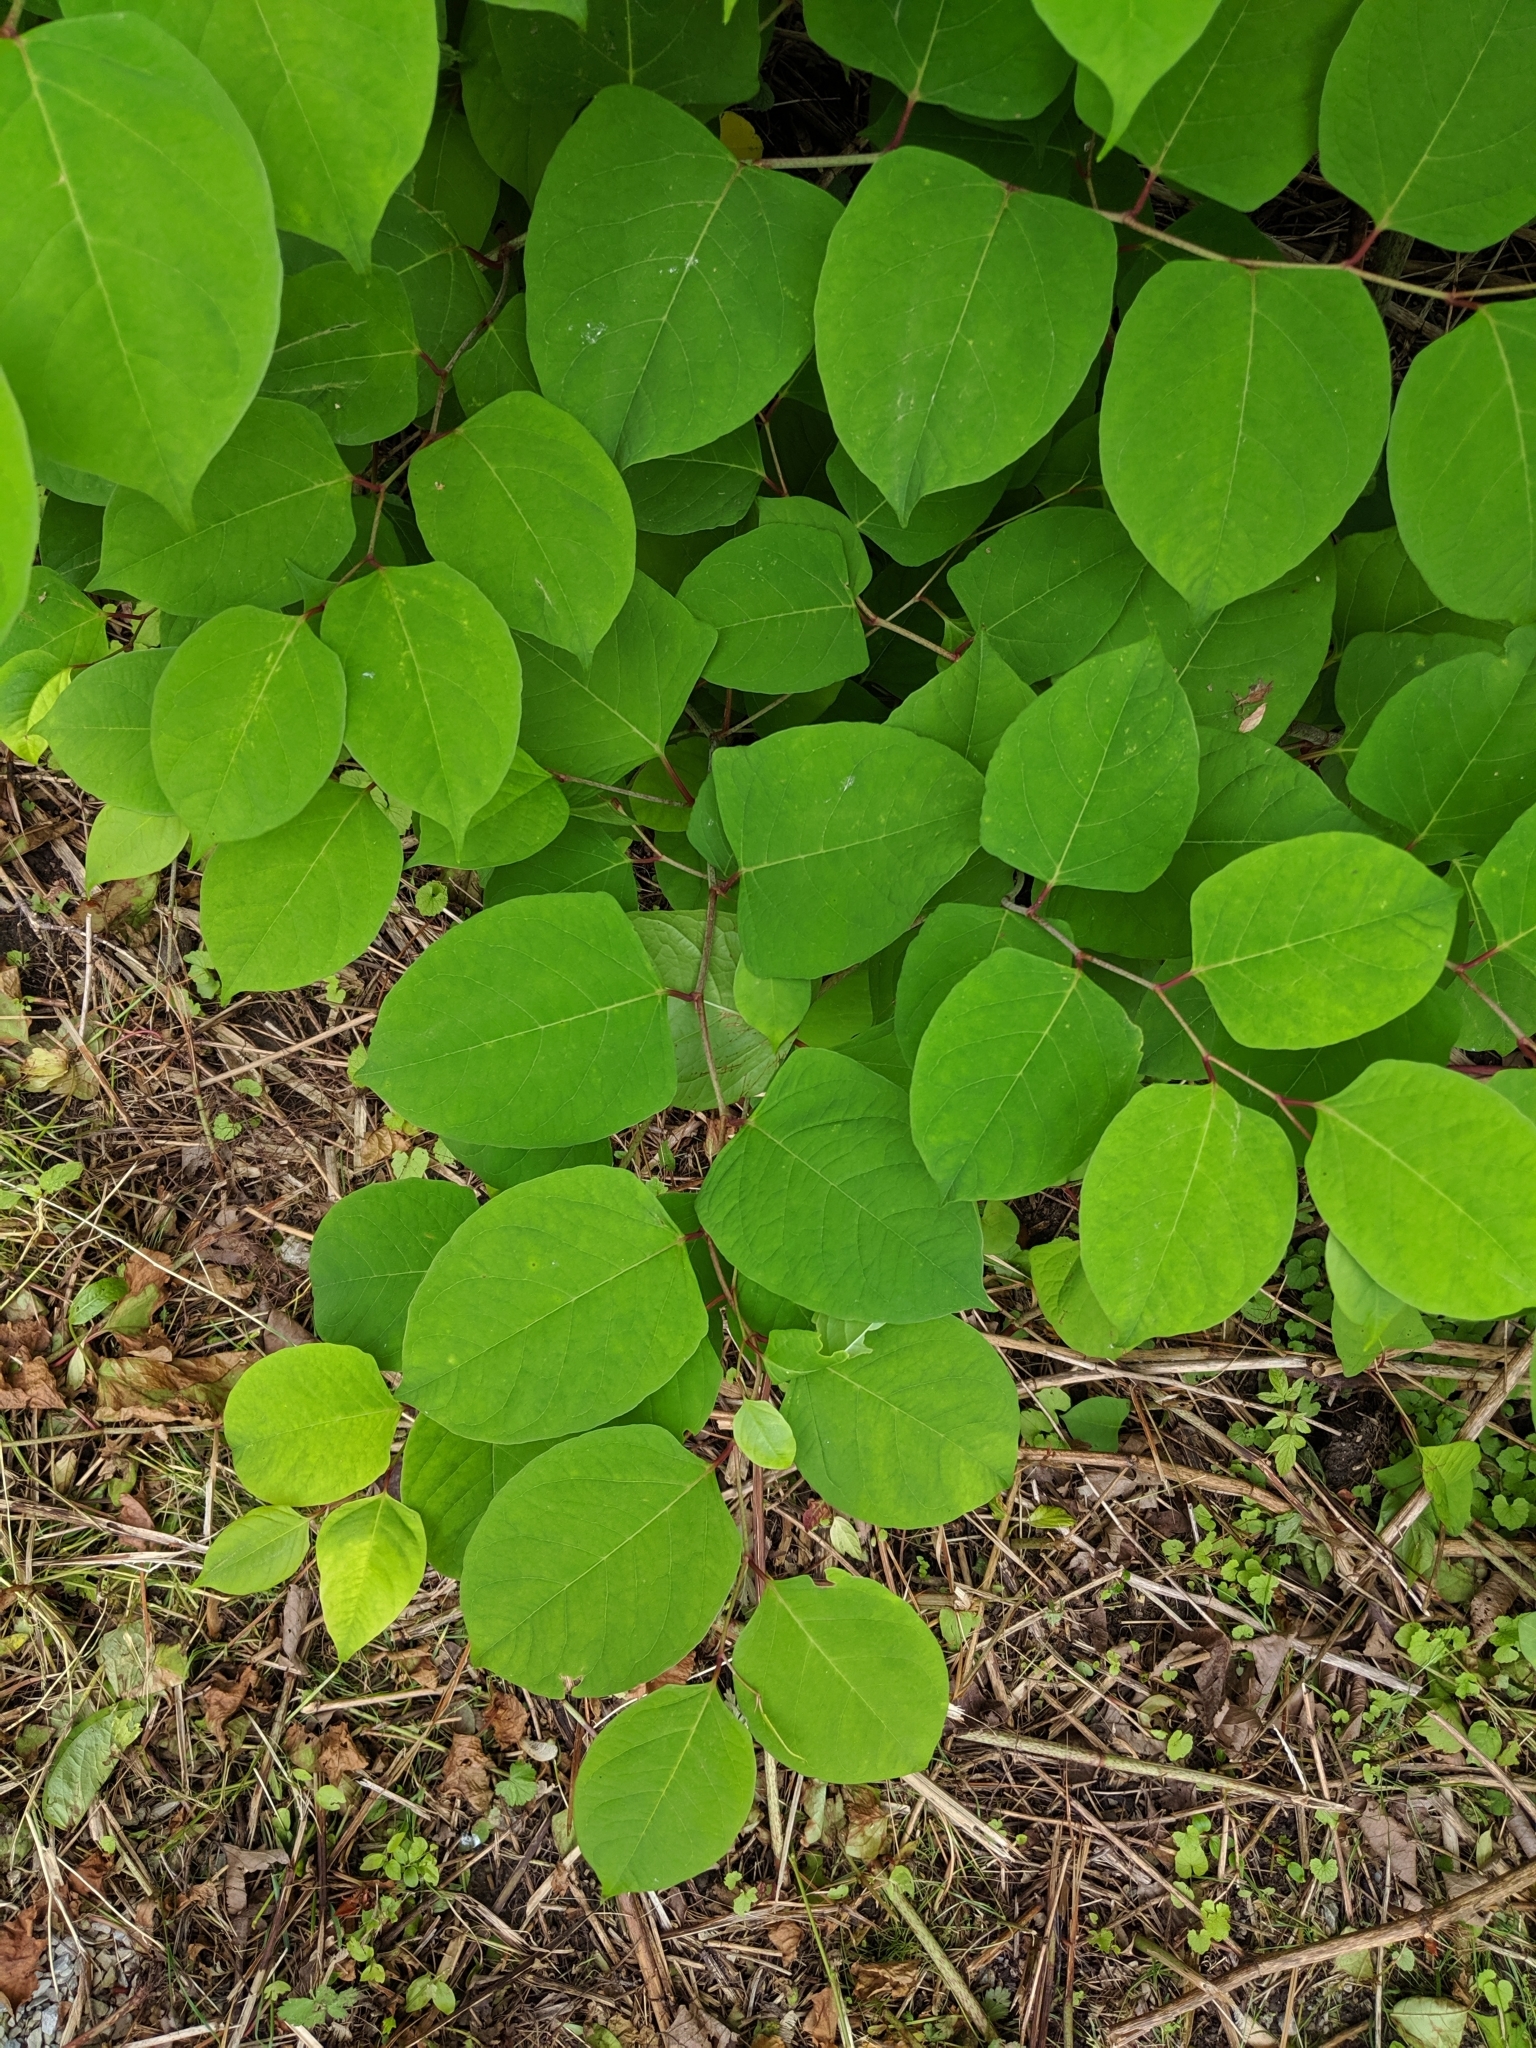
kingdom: Plantae
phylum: Tracheophyta
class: Magnoliopsida
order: Caryophyllales
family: Polygonaceae
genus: Reynoutria
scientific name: Reynoutria japonica
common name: Japanese knotweed
